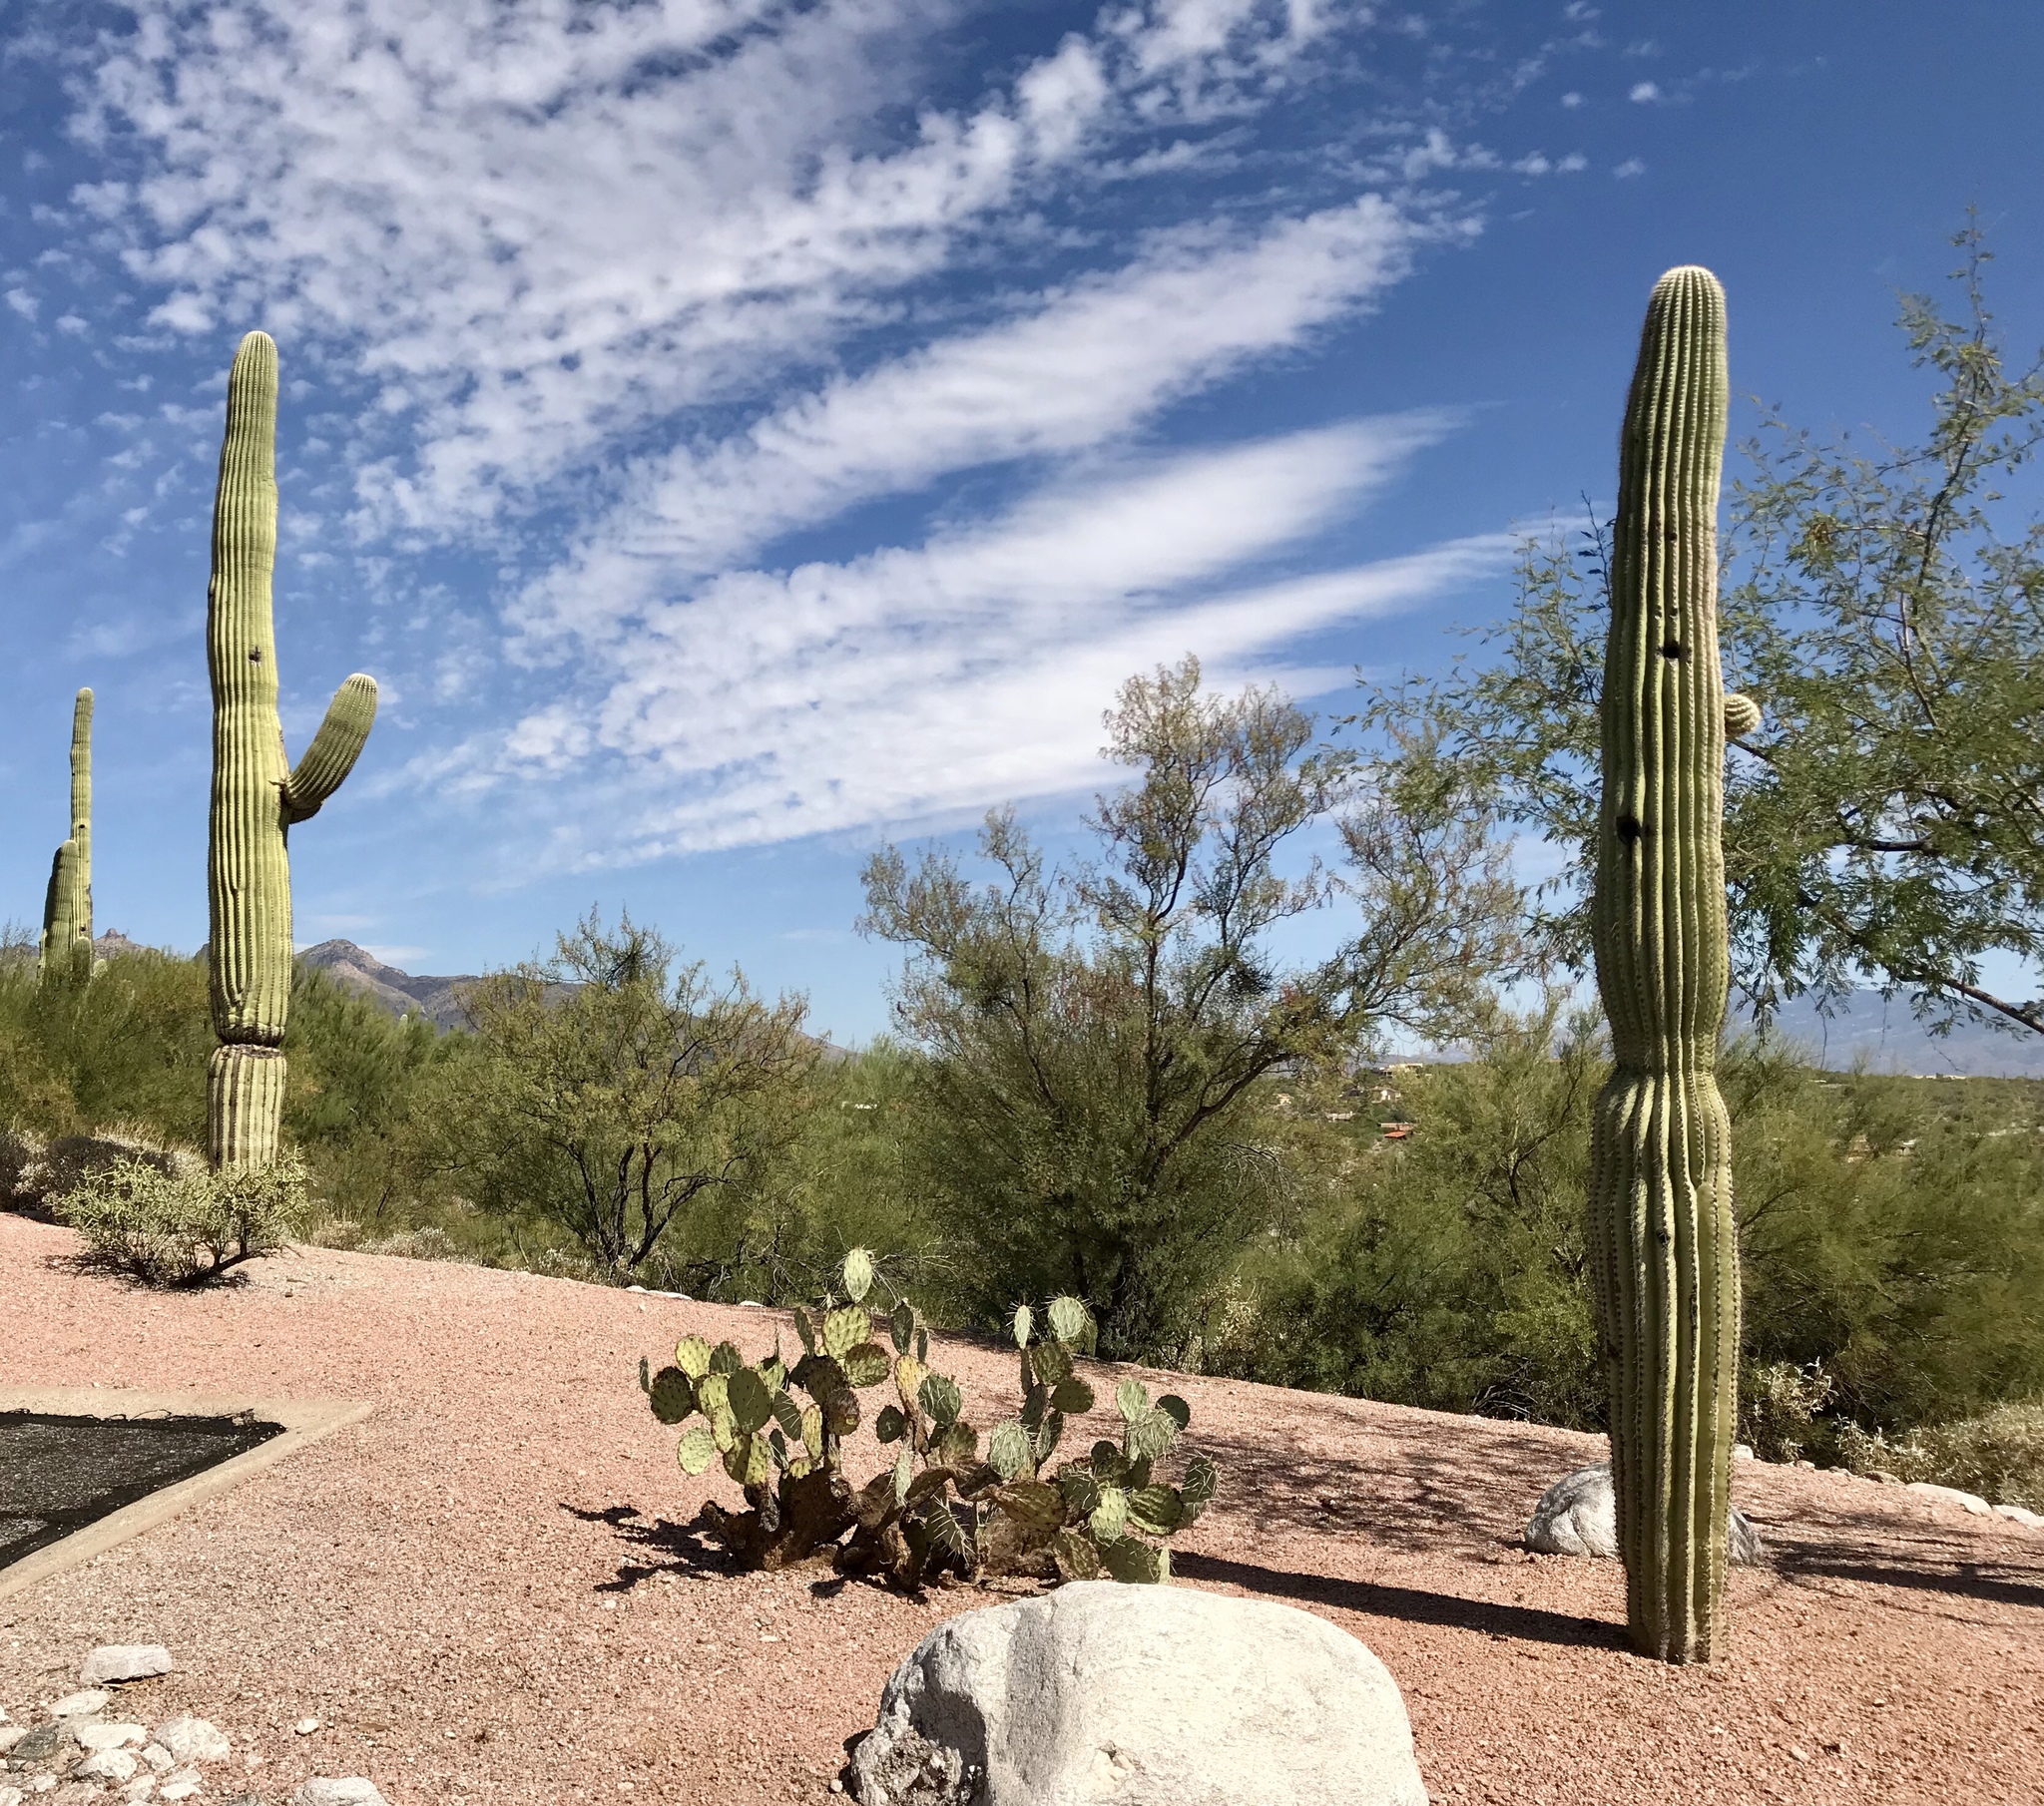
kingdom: Plantae
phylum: Tracheophyta
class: Magnoliopsida
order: Caryophyllales
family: Cactaceae
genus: Carnegiea
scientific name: Carnegiea gigantea
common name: Saguaro
